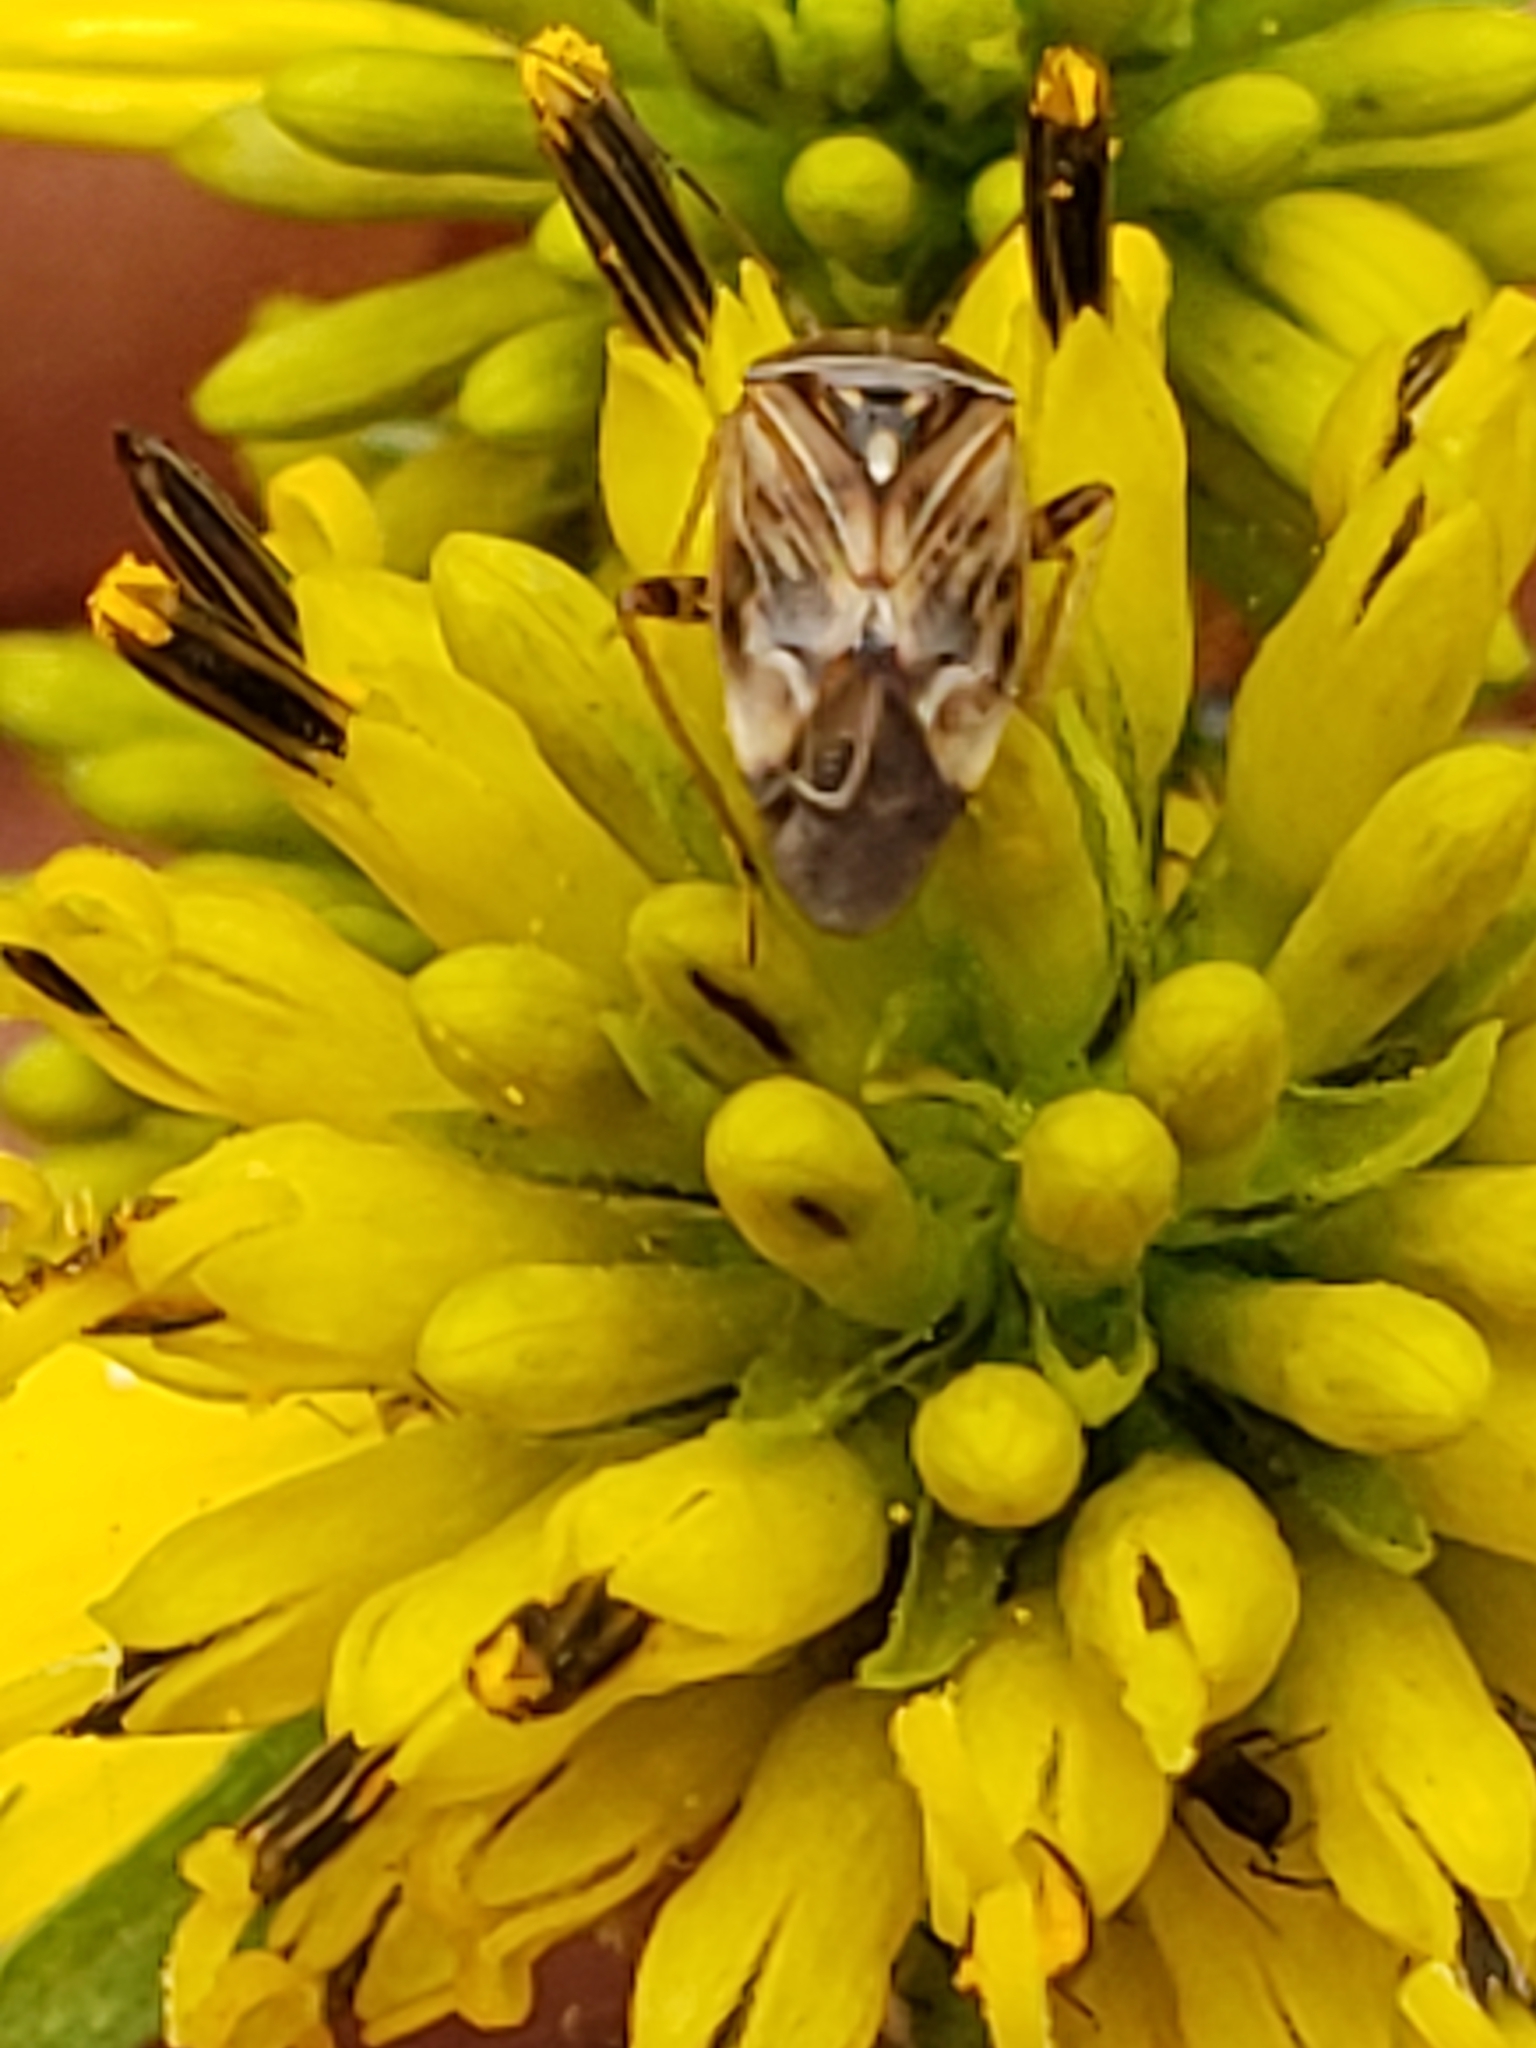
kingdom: Animalia
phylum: Arthropoda
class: Insecta
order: Hemiptera
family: Miridae
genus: Lygus
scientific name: Lygus lineolaris
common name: North american tarnished plant bug
